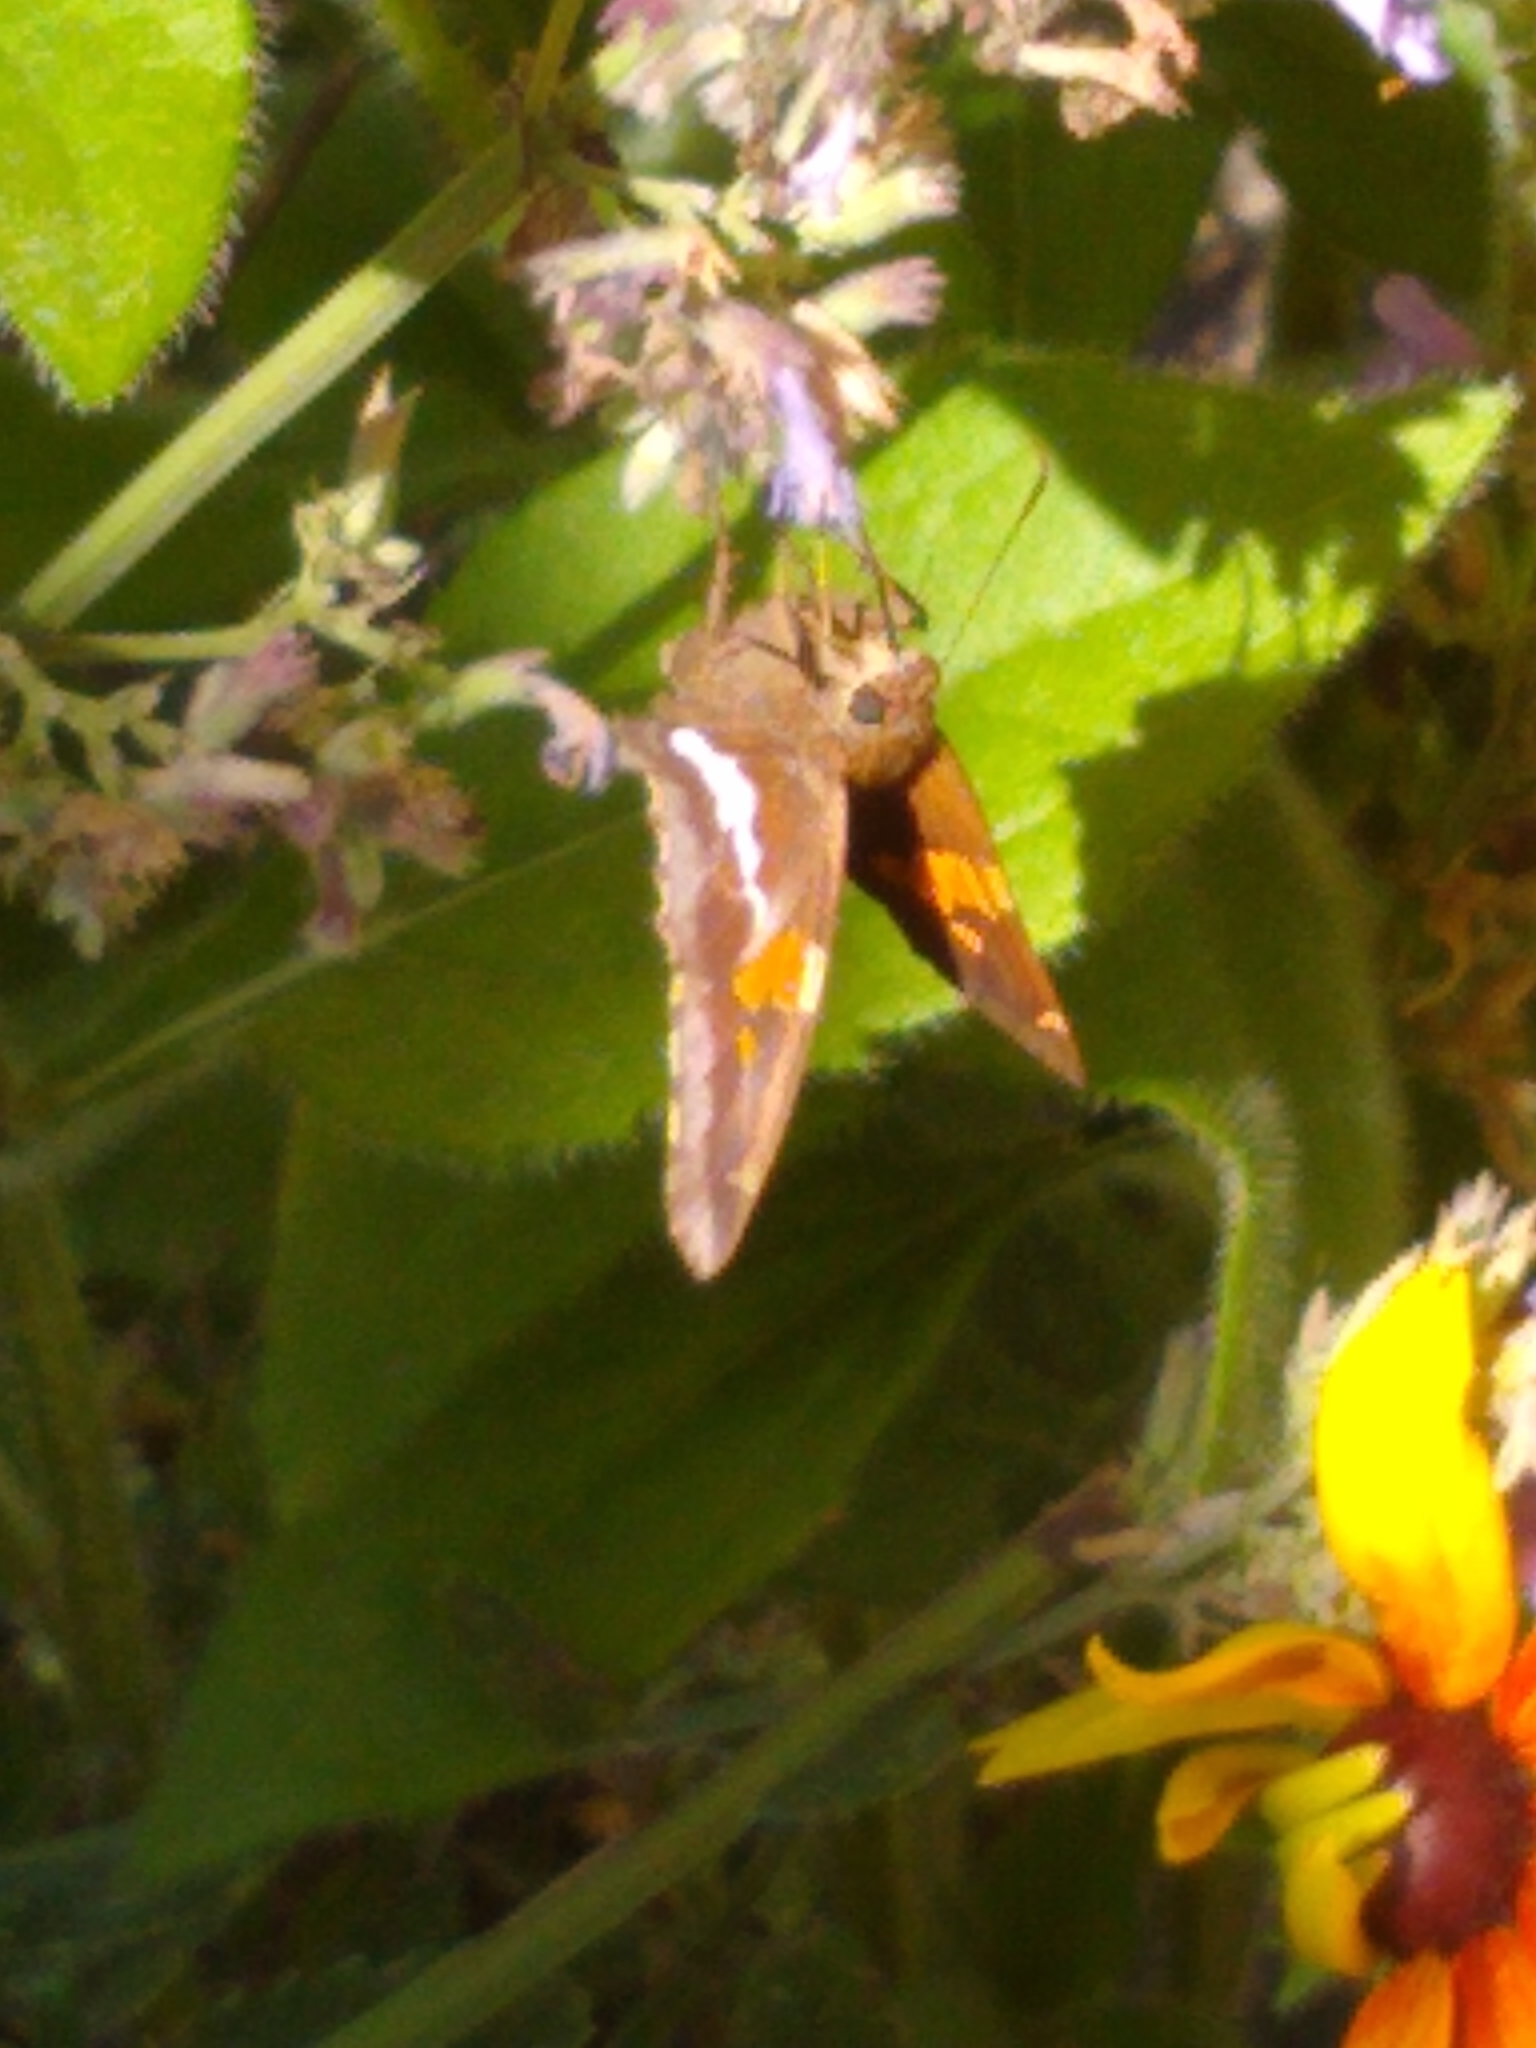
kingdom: Animalia
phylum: Arthropoda
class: Insecta
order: Lepidoptera
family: Hesperiidae
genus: Epargyreus
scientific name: Epargyreus clarus
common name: Silver-spotted skipper
